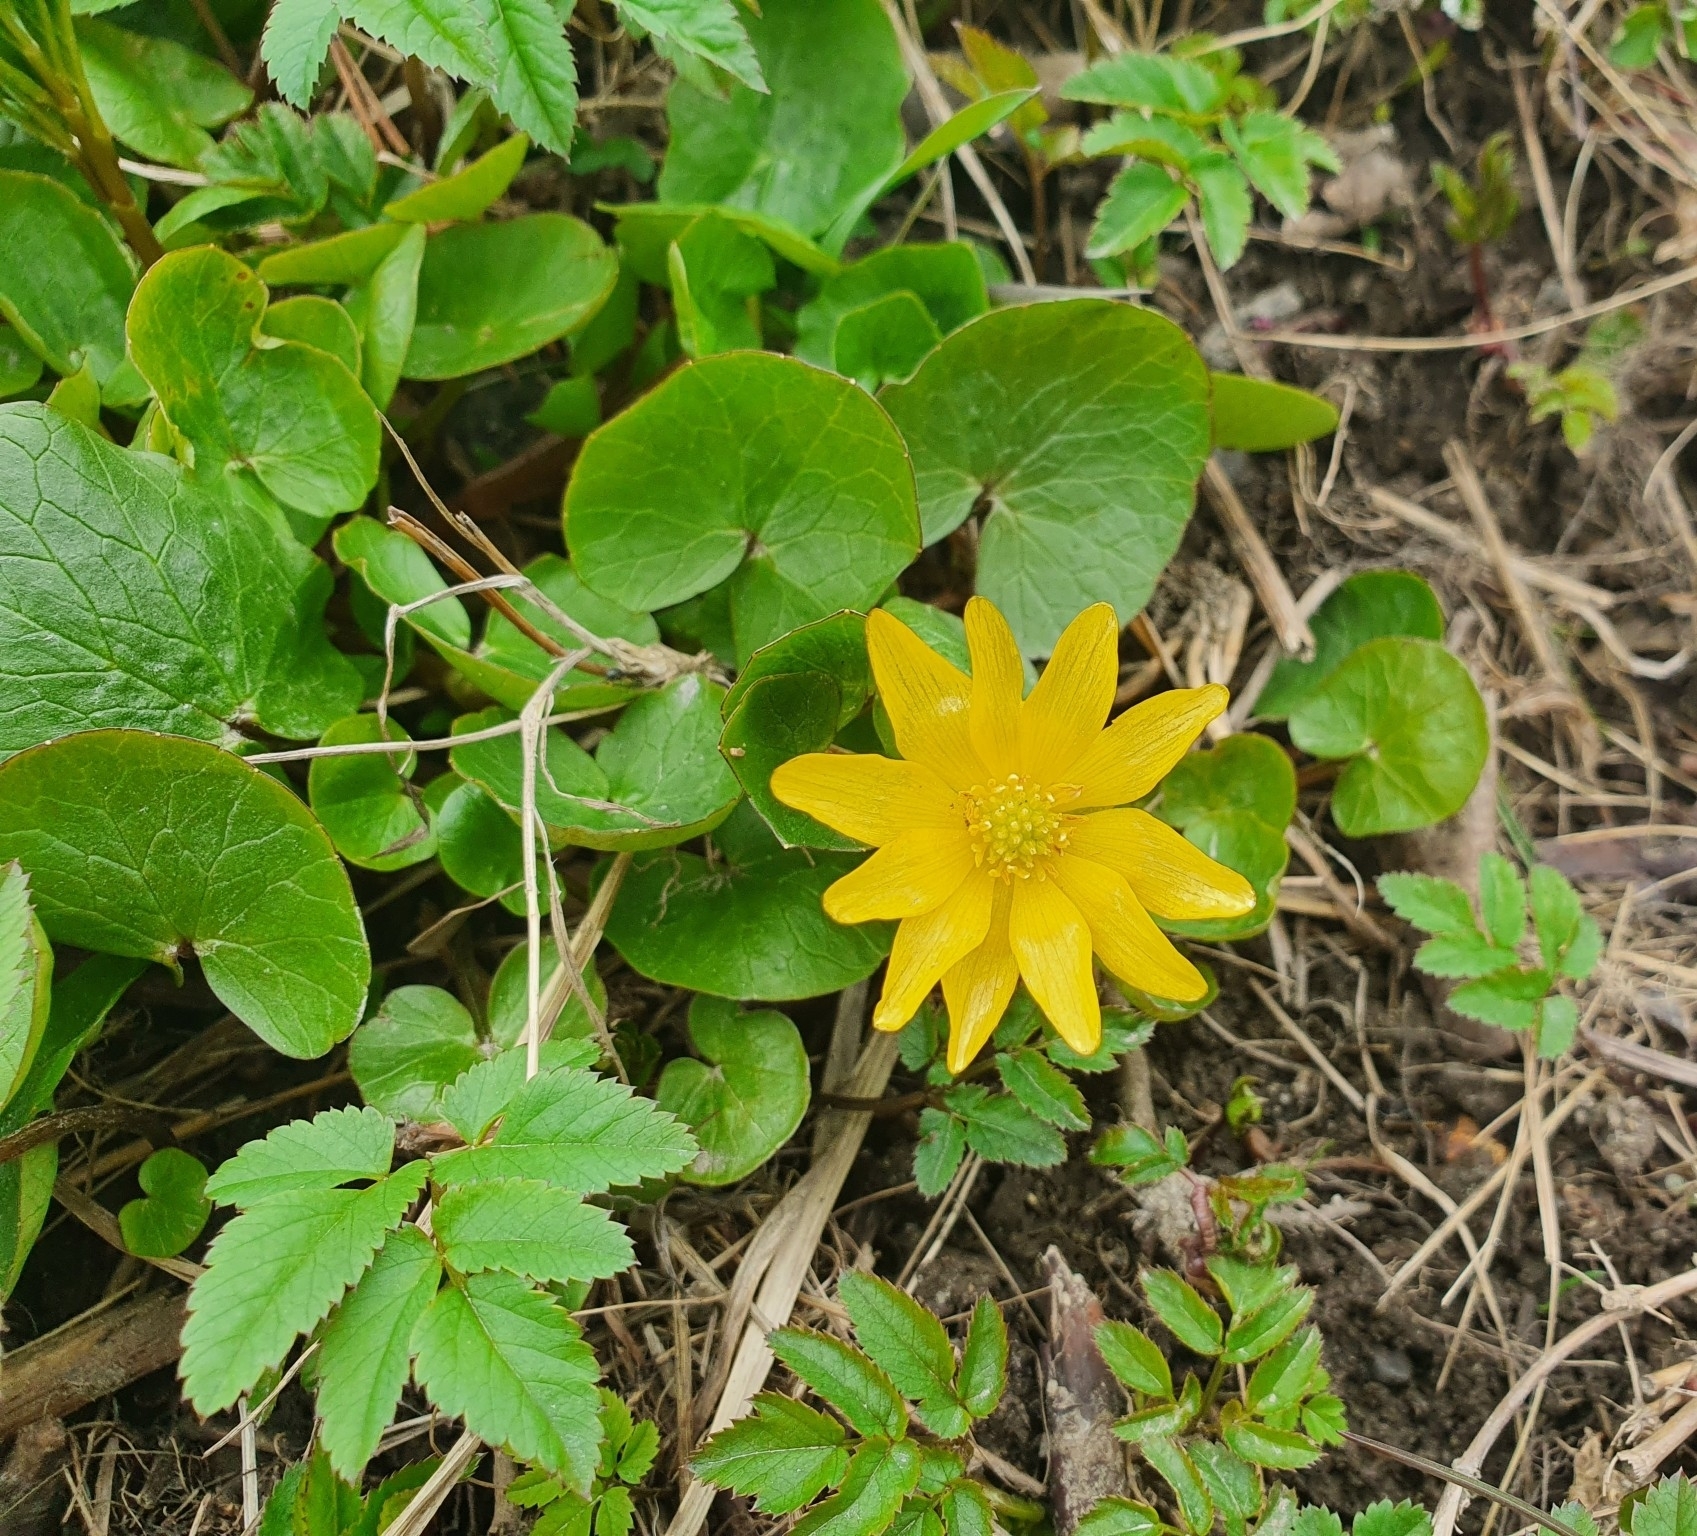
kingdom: Plantae
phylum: Tracheophyta
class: Magnoliopsida
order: Ranunculales
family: Ranunculaceae
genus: Ficaria
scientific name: Ficaria verna
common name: Lesser celandine
